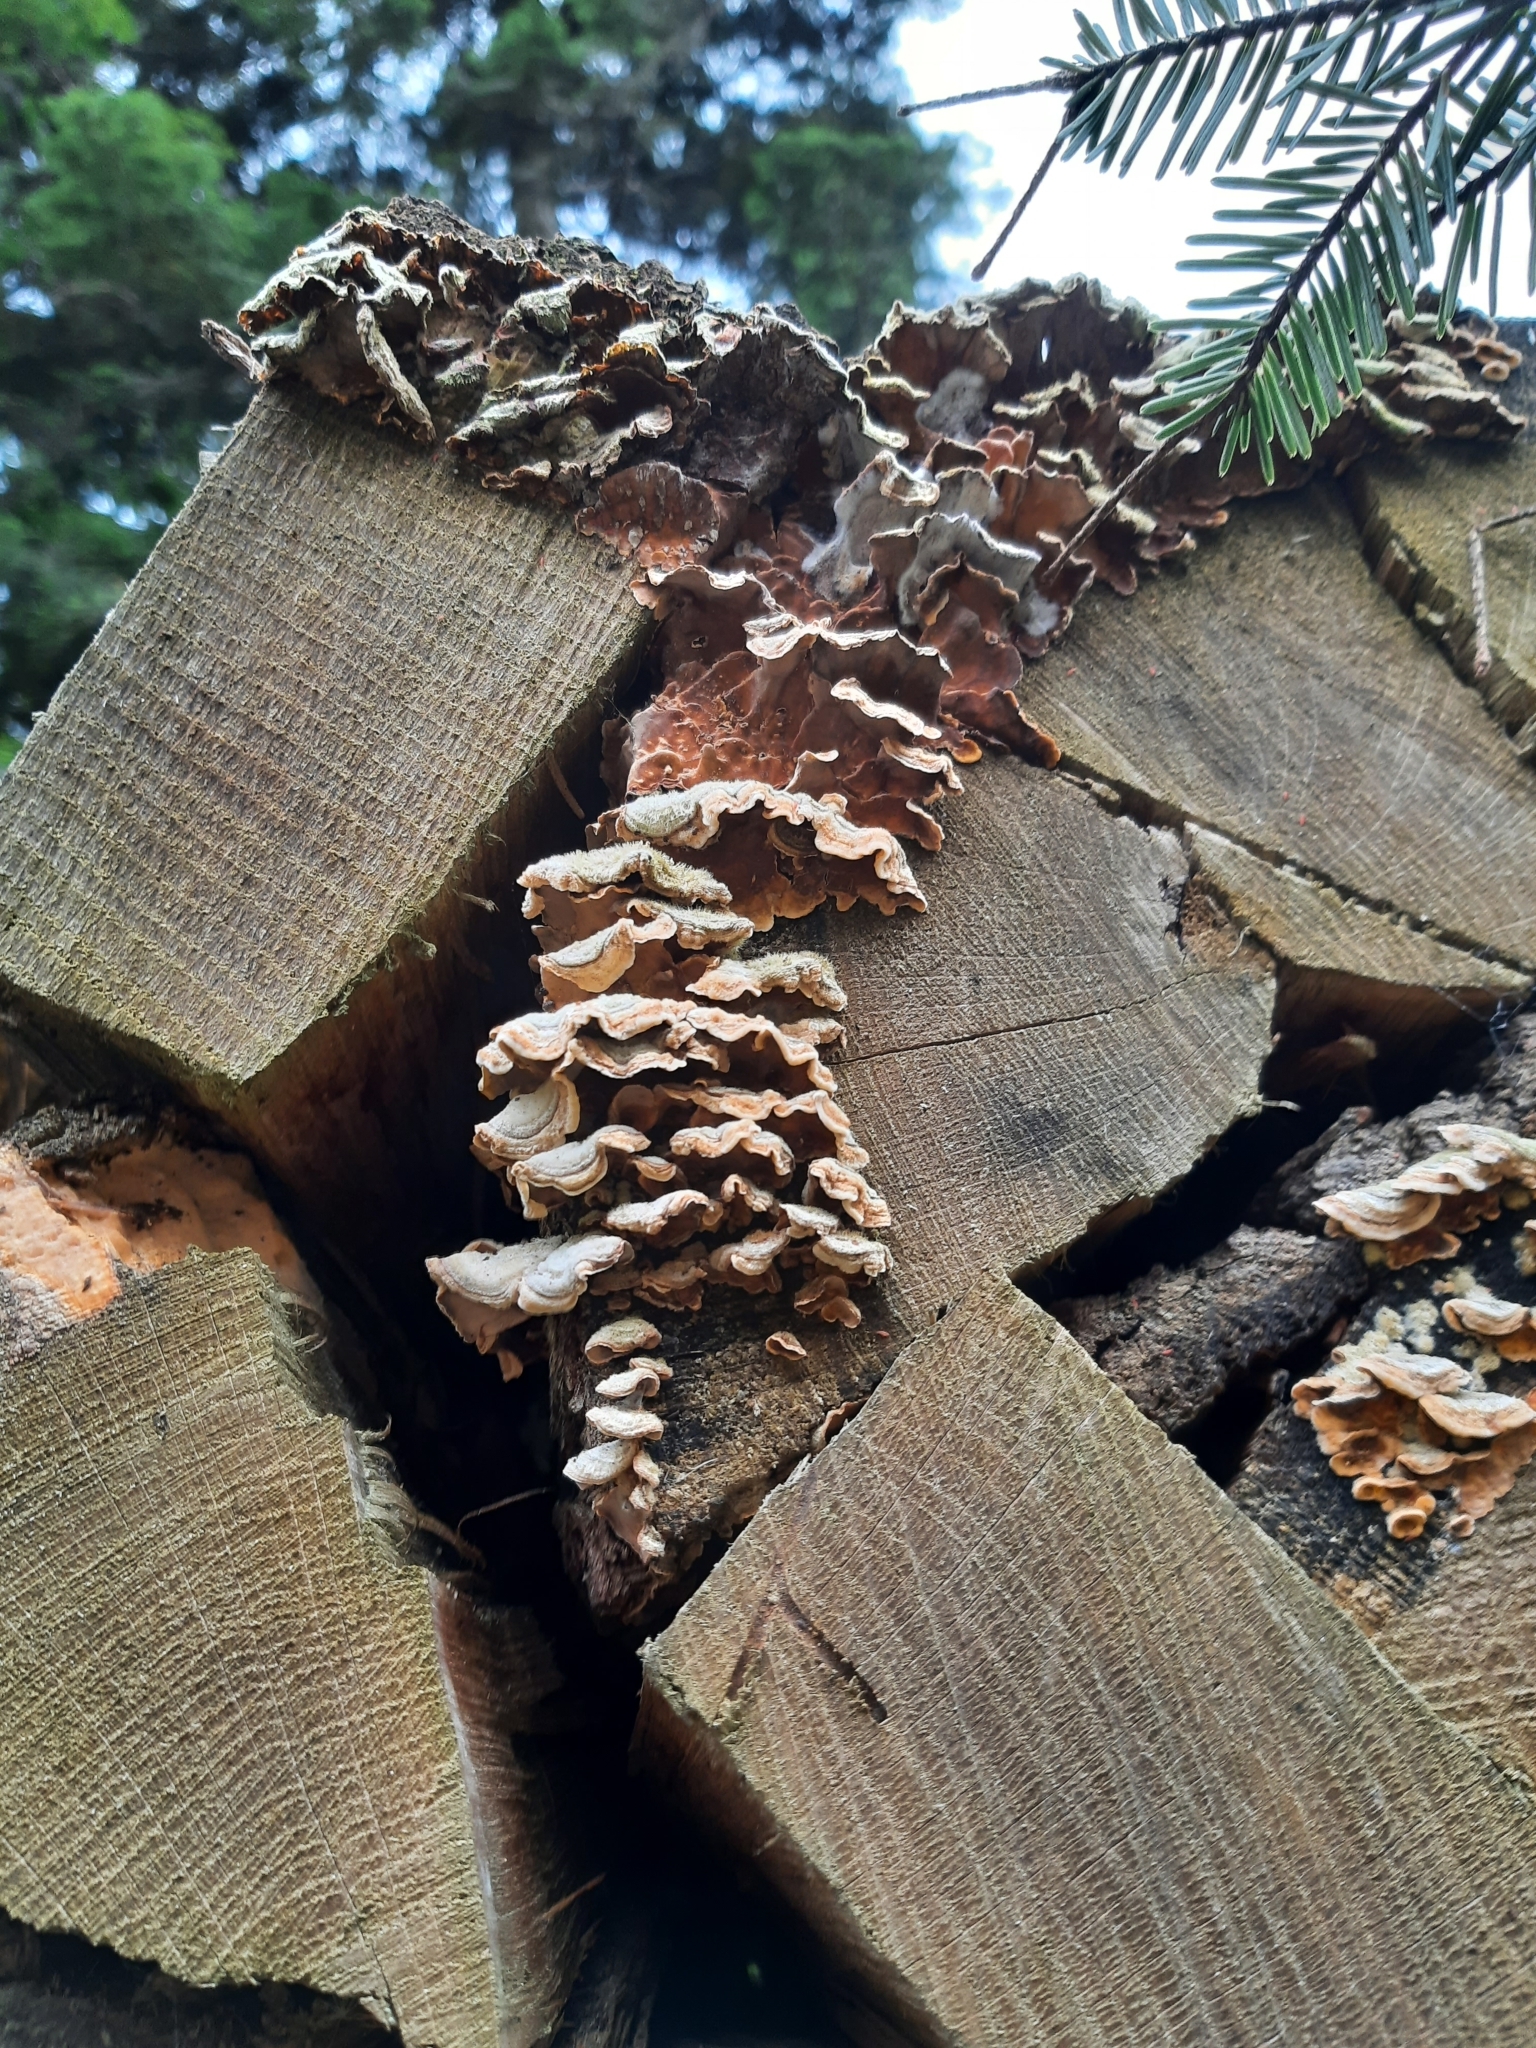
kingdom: Fungi
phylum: Basidiomycota
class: Agaricomycetes
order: Russulales
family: Stereaceae
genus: Stereum
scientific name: Stereum hirsutum
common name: Hairy curtain crust
